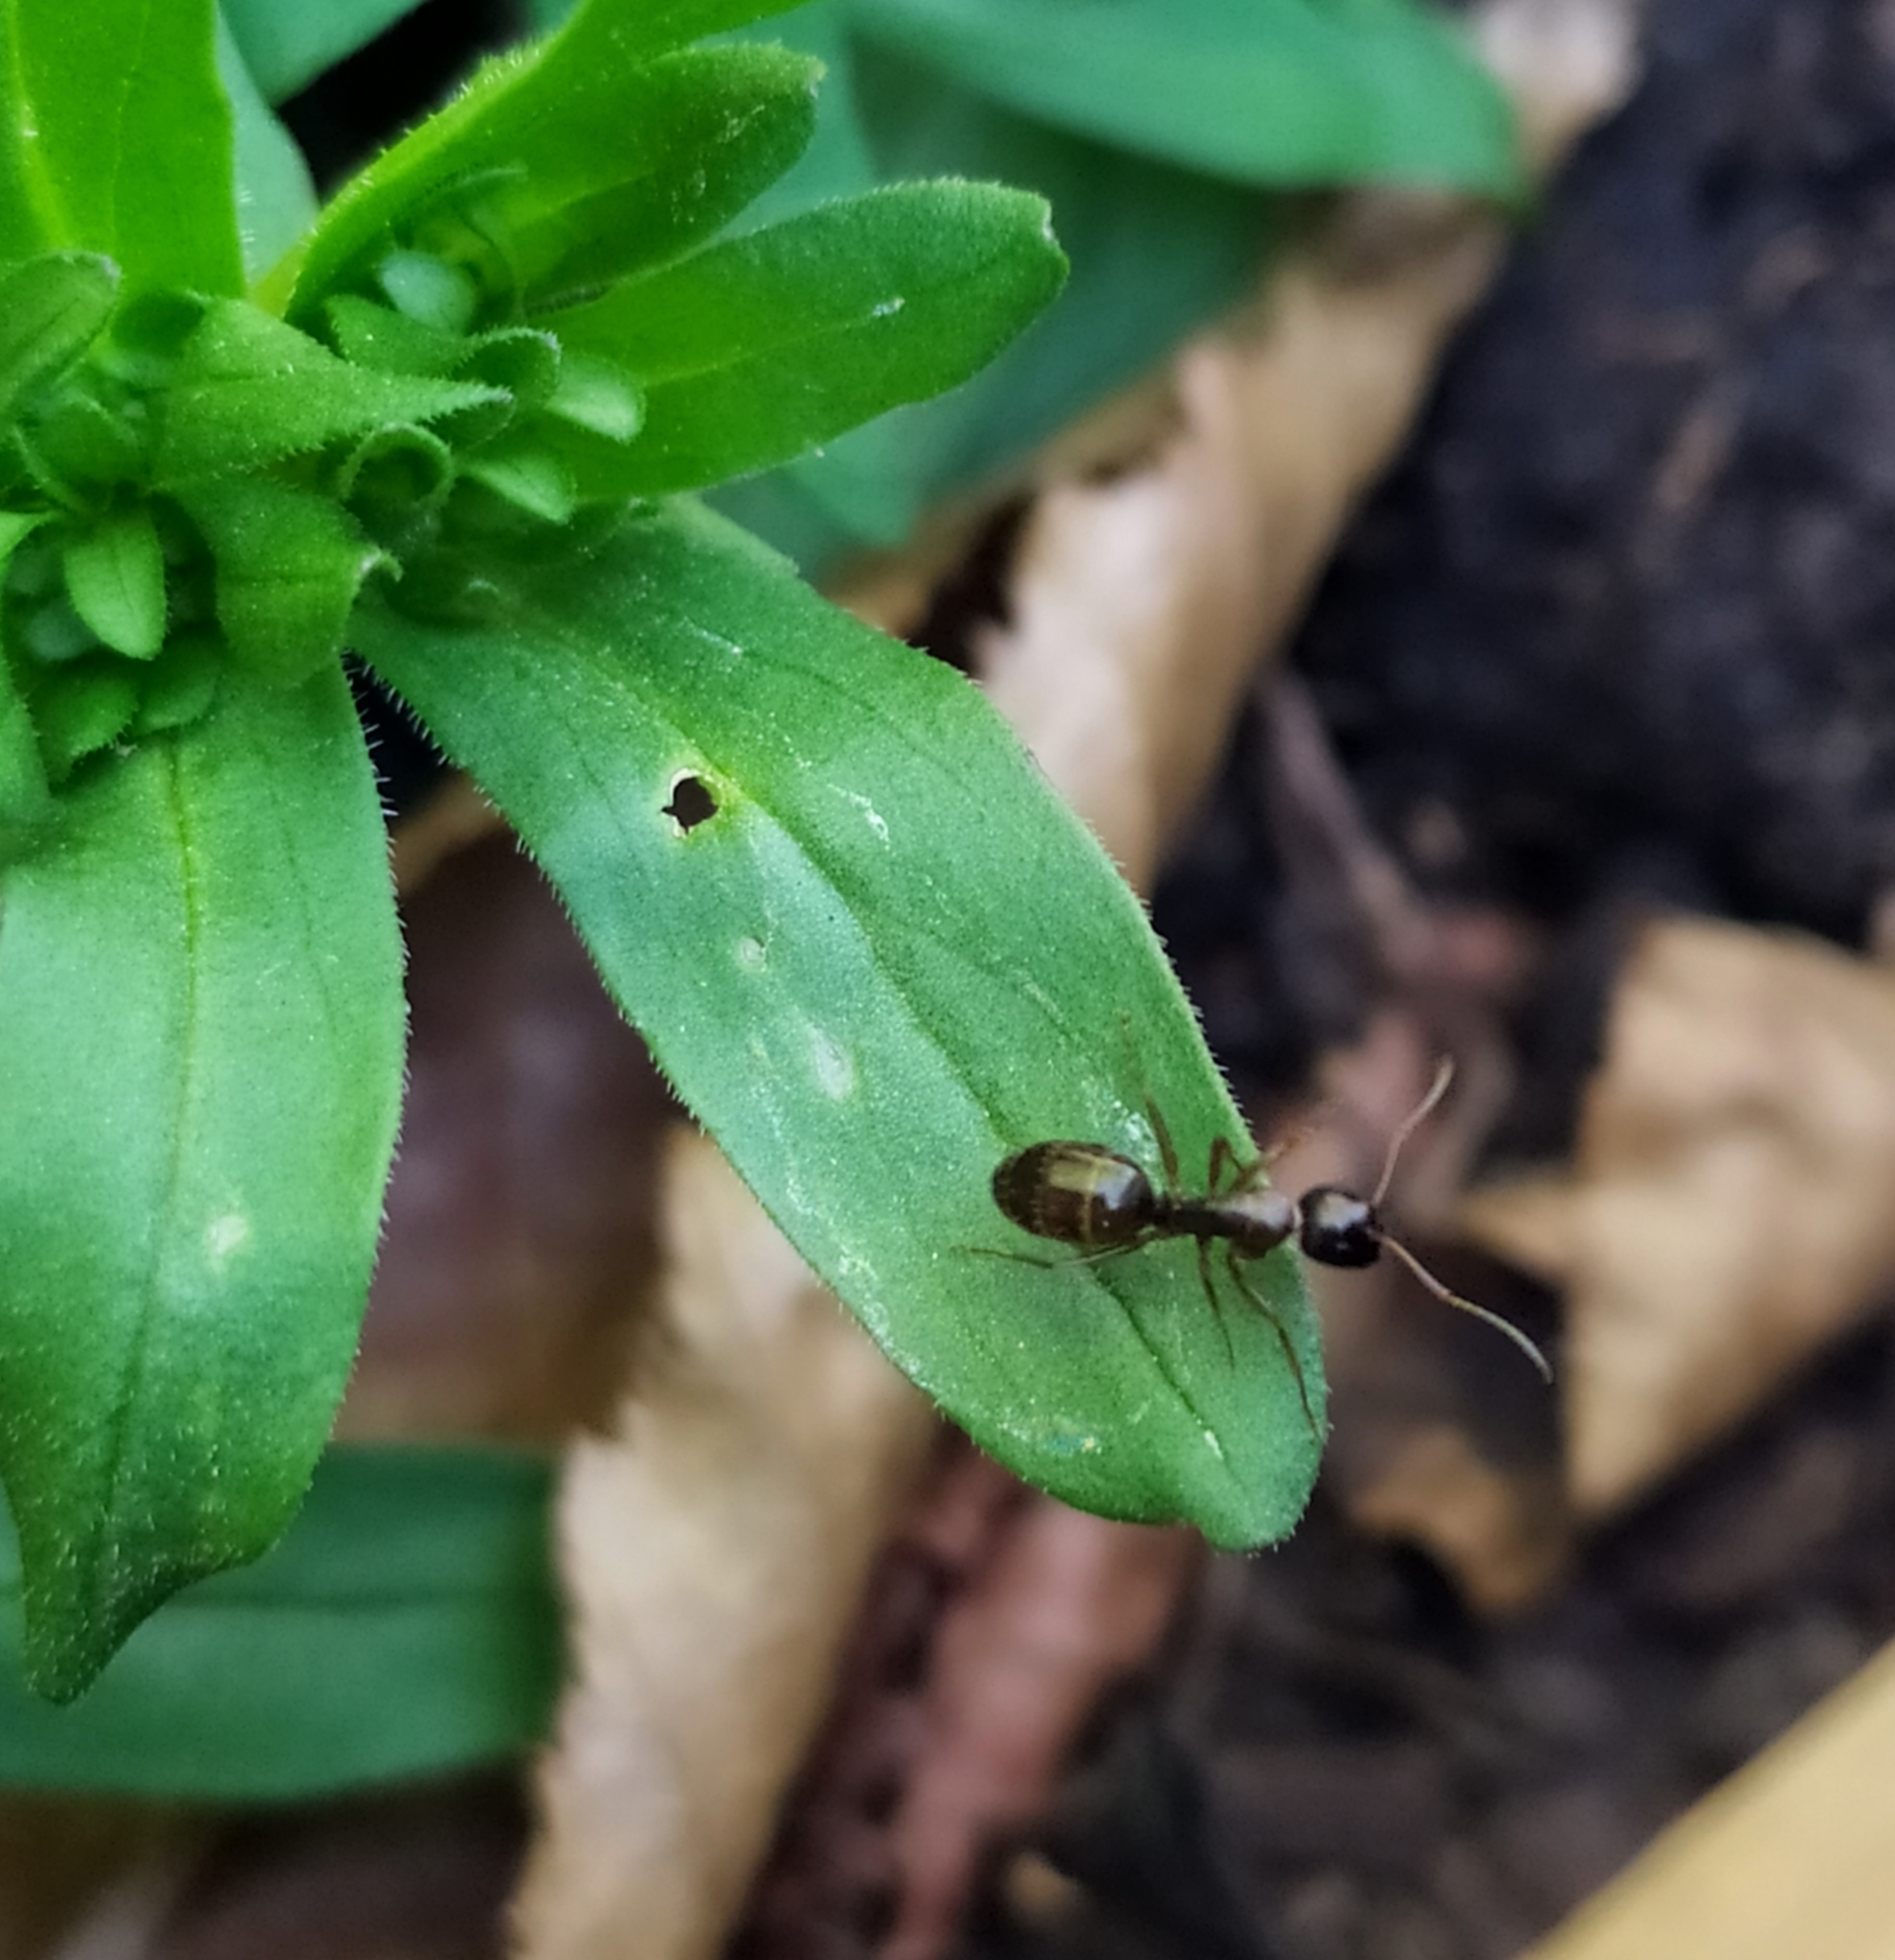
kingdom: Animalia
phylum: Arthropoda
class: Insecta
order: Hymenoptera
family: Formicidae
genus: Camponotus
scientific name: Camponotus fallax
